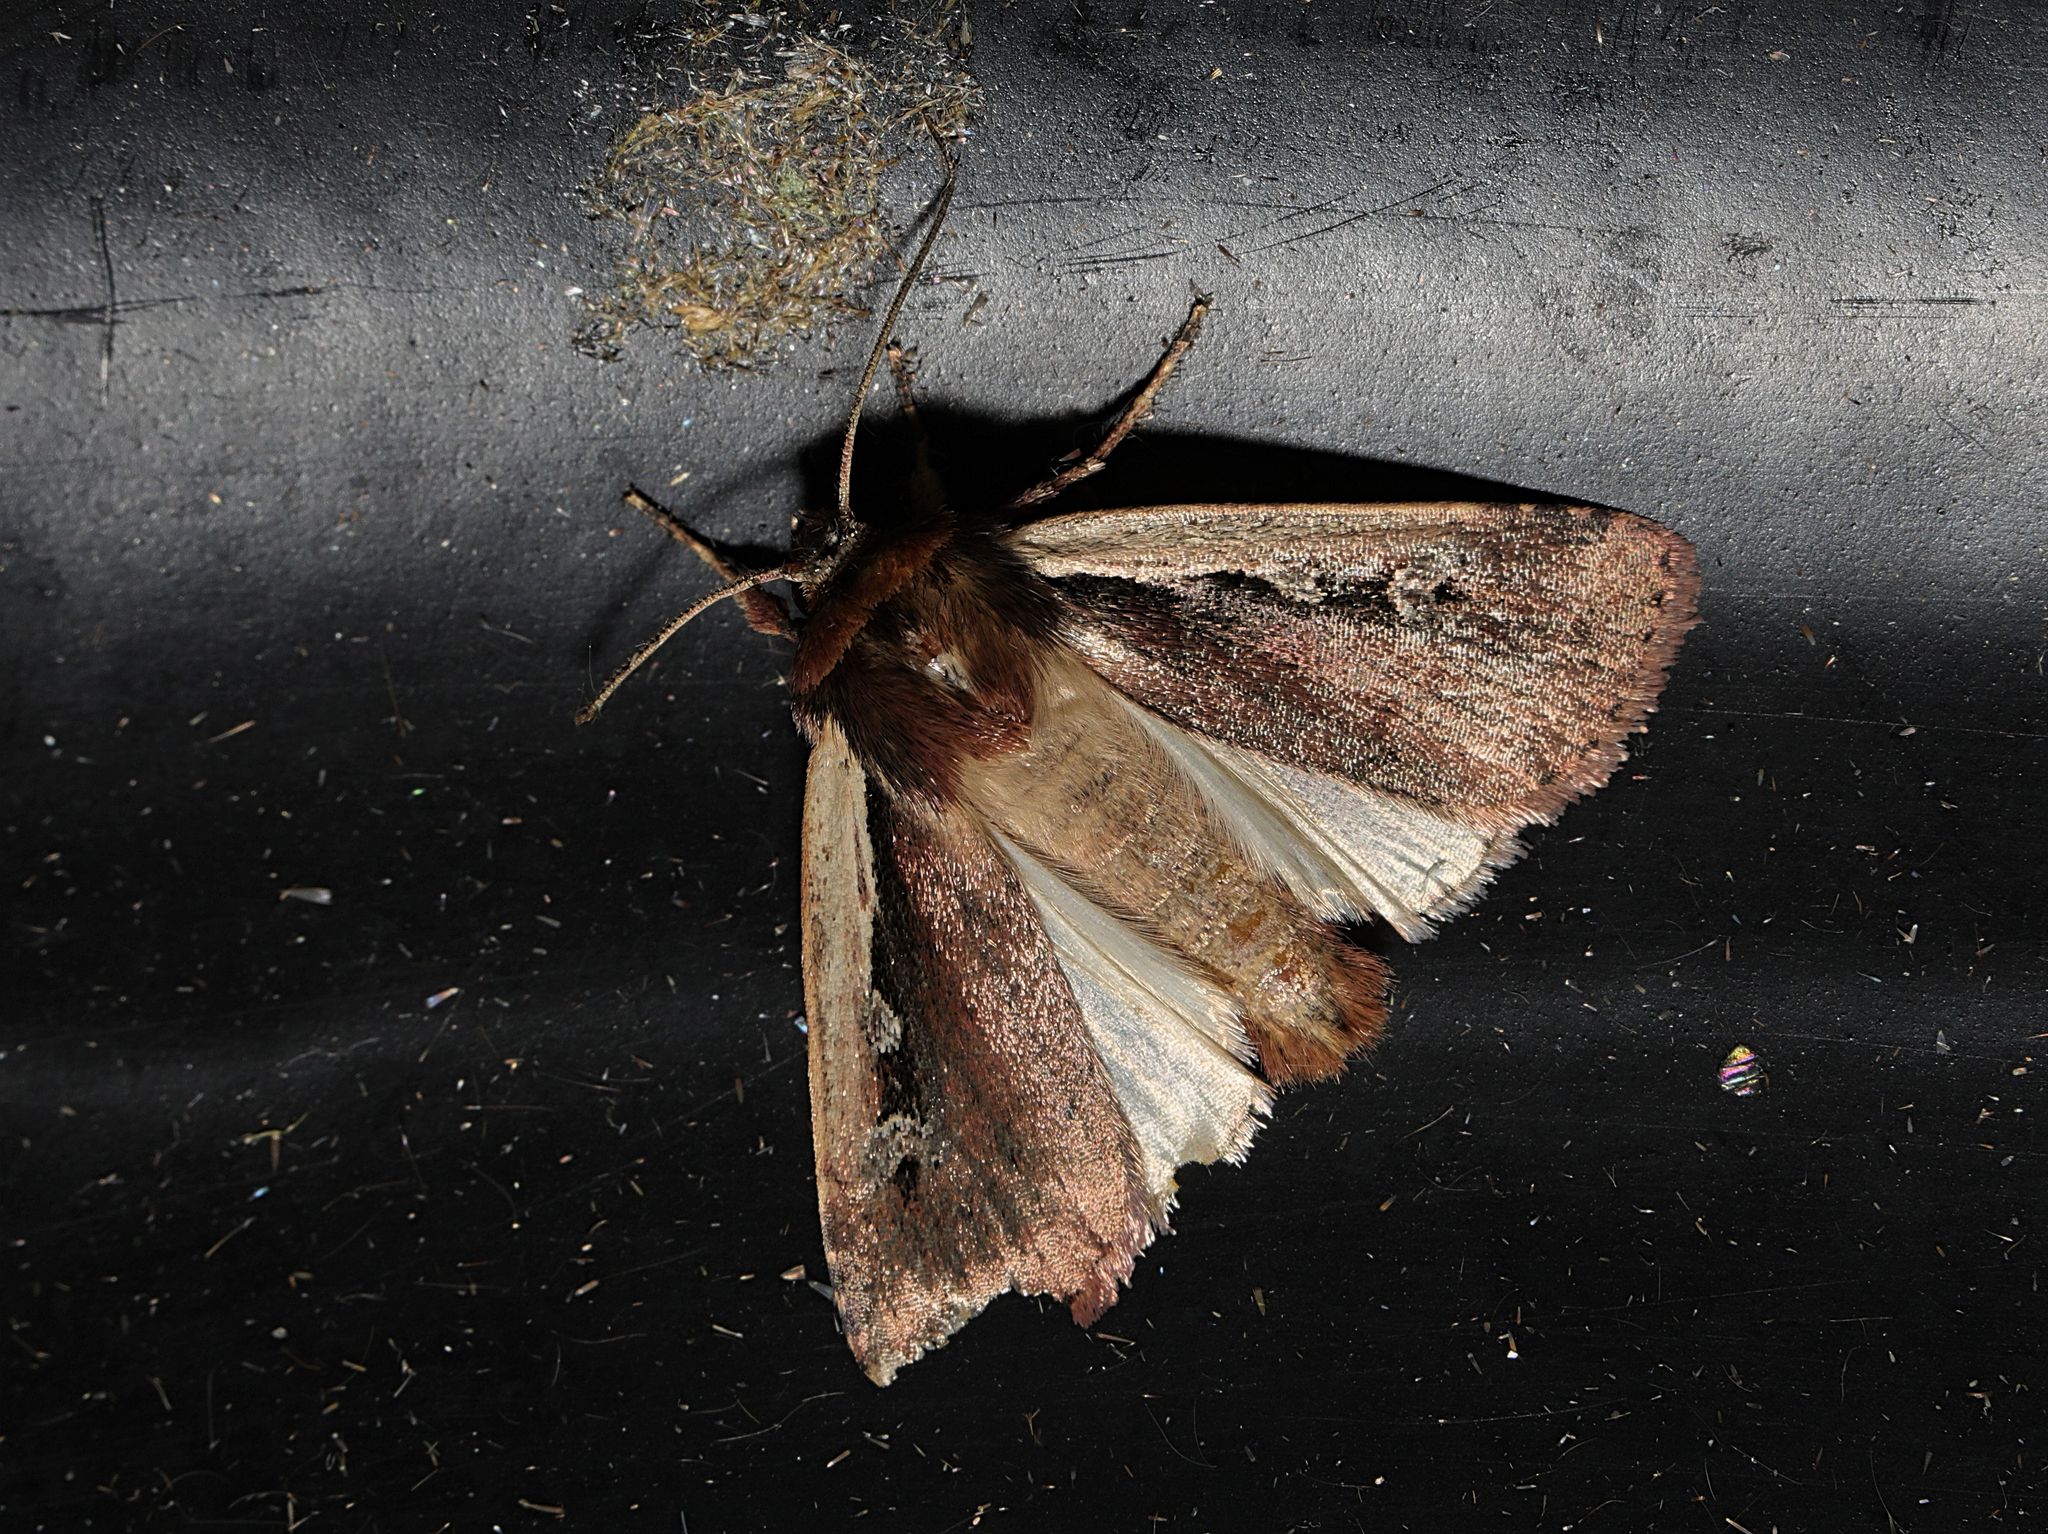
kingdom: Animalia
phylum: Arthropoda
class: Insecta
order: Lepidoptera
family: Noctuidae
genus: Ochropleura
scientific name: Ochropleura plecta
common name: Flame shoulder
